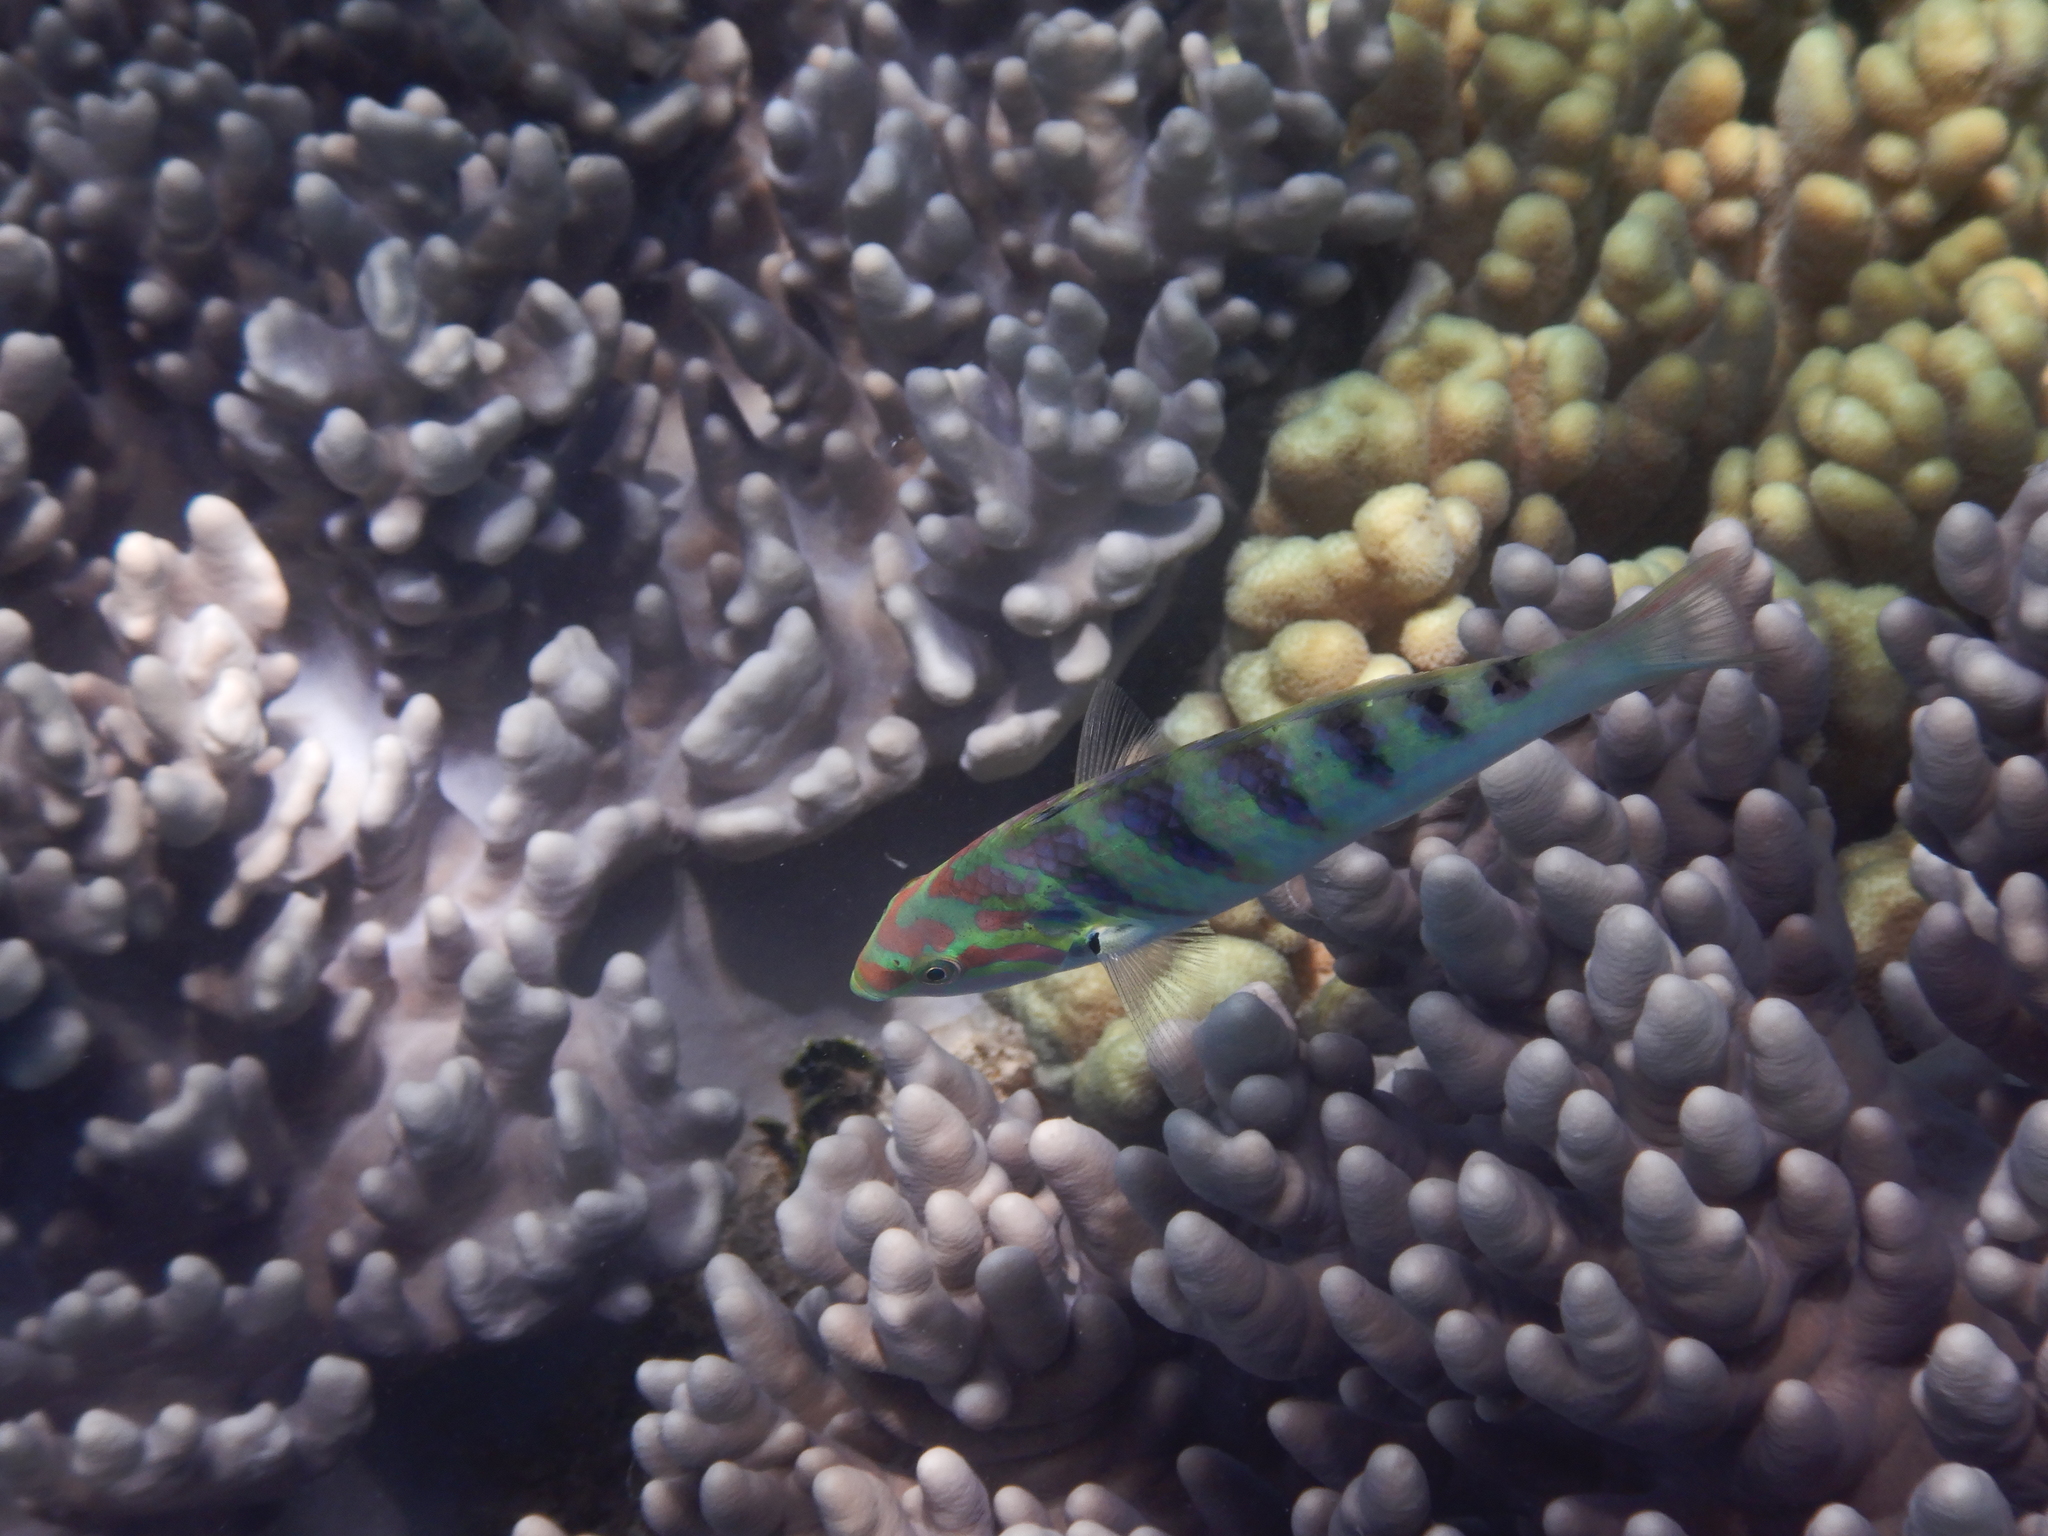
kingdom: Animalia
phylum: Chordata
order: Perciformes
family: Labridae
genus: Thalassoma
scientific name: Thalassoma hardwicke
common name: Sixbar wrasse
